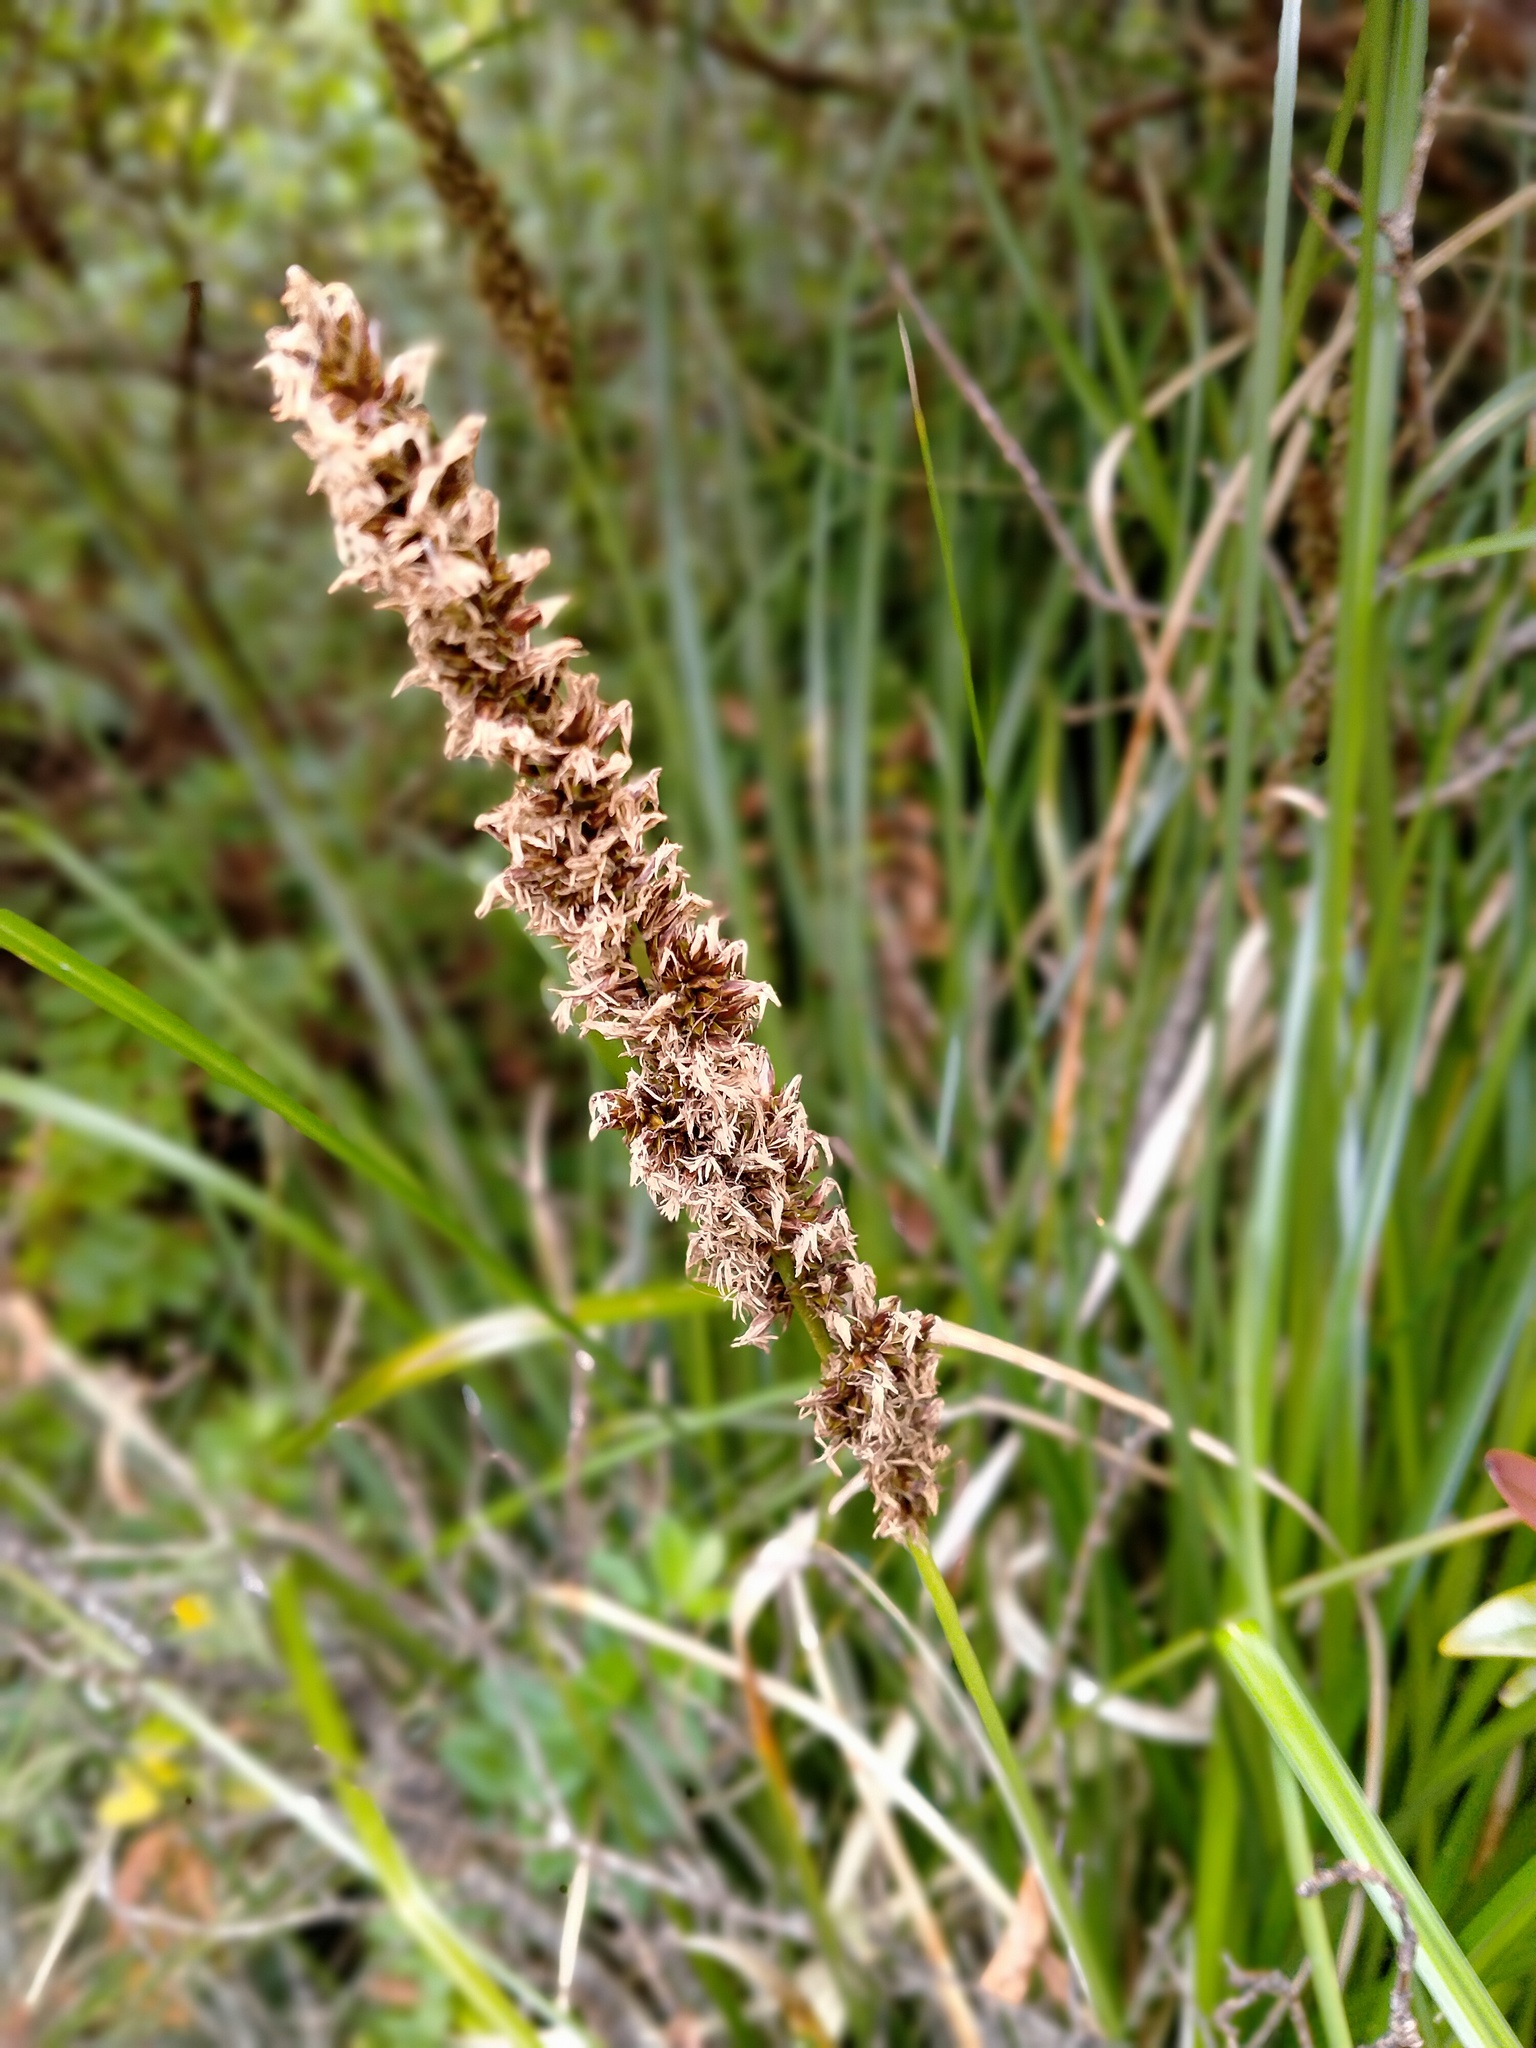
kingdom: Plantae
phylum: Tracheophyta
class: Liliopsida
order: Poales
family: Cyperaceae
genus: Carex
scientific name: Carex appressa
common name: Tussock sedge
